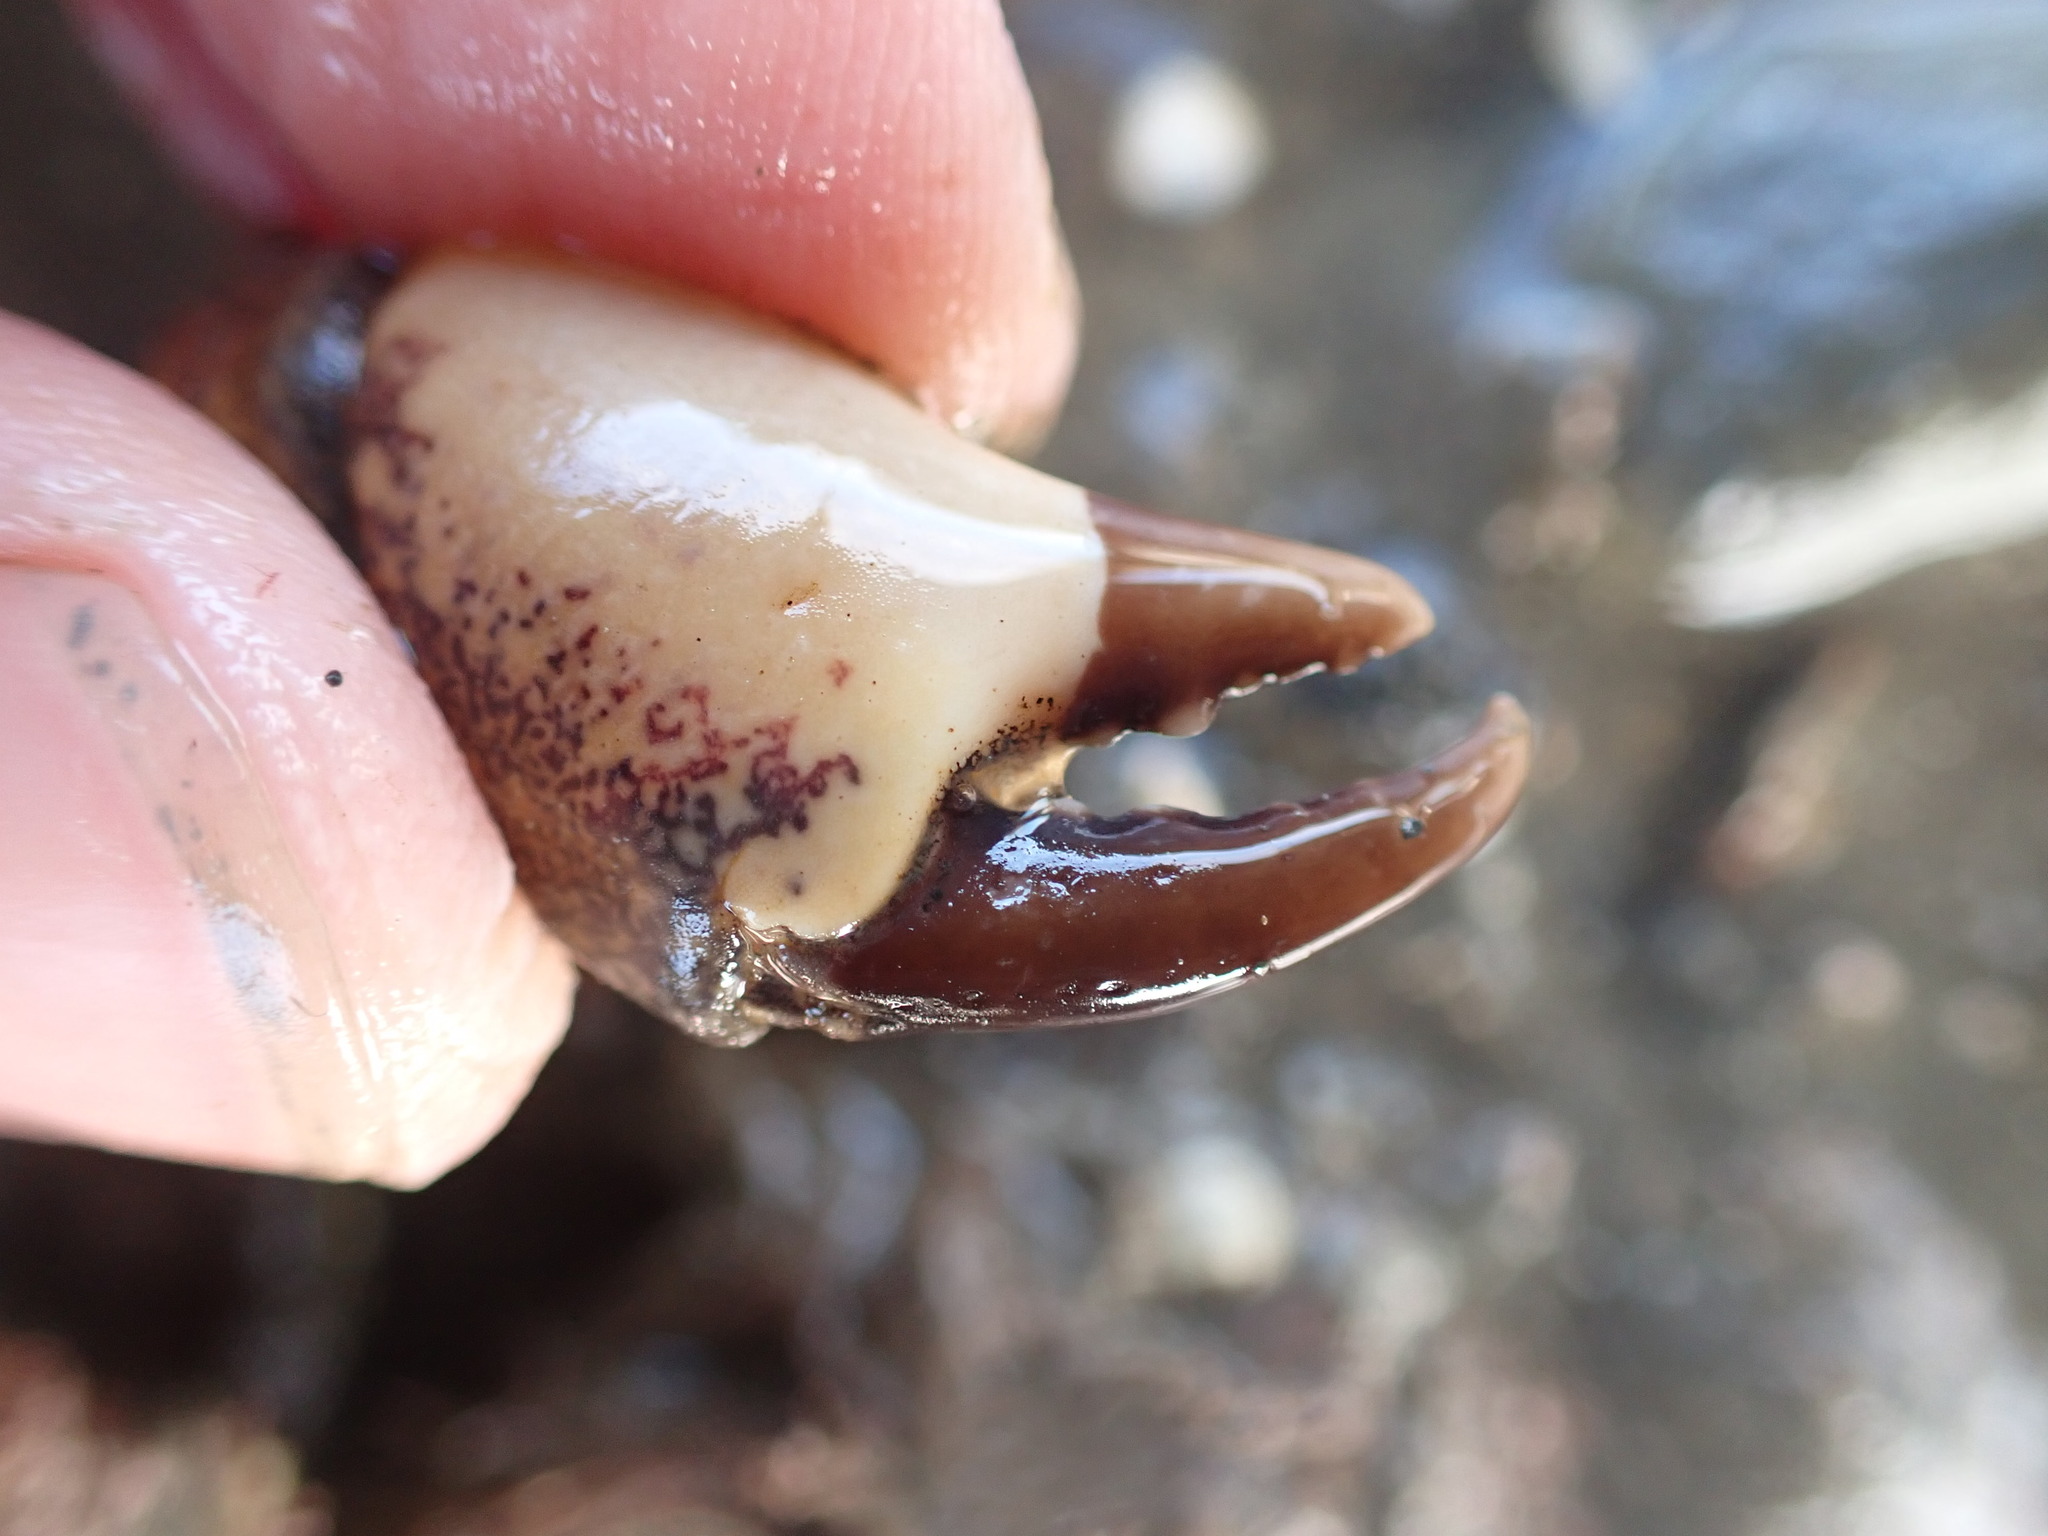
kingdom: Animalia
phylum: Arthropoda
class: Malacostraca
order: Decapoda
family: Pilumnidae
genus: Pilumnopeus
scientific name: Pilumnopeus serratifrons
